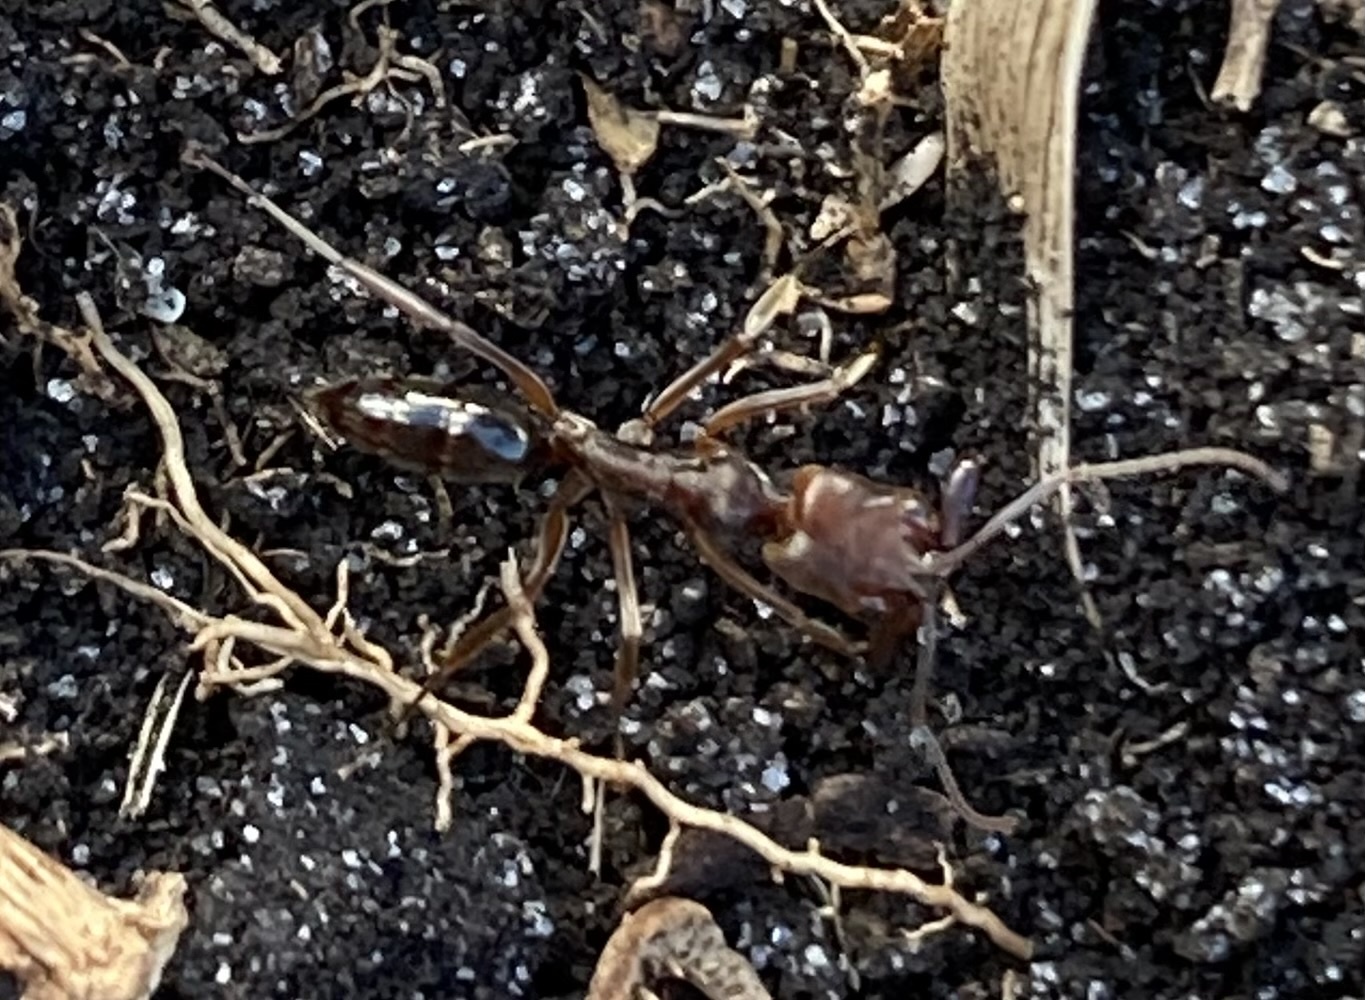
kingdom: Animalia
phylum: Arthropoda
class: Insecta
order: Hymenoptera
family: Formicidae
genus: Odontomachus
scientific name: Odontomachus ruginodis
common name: Trapjaw ant
